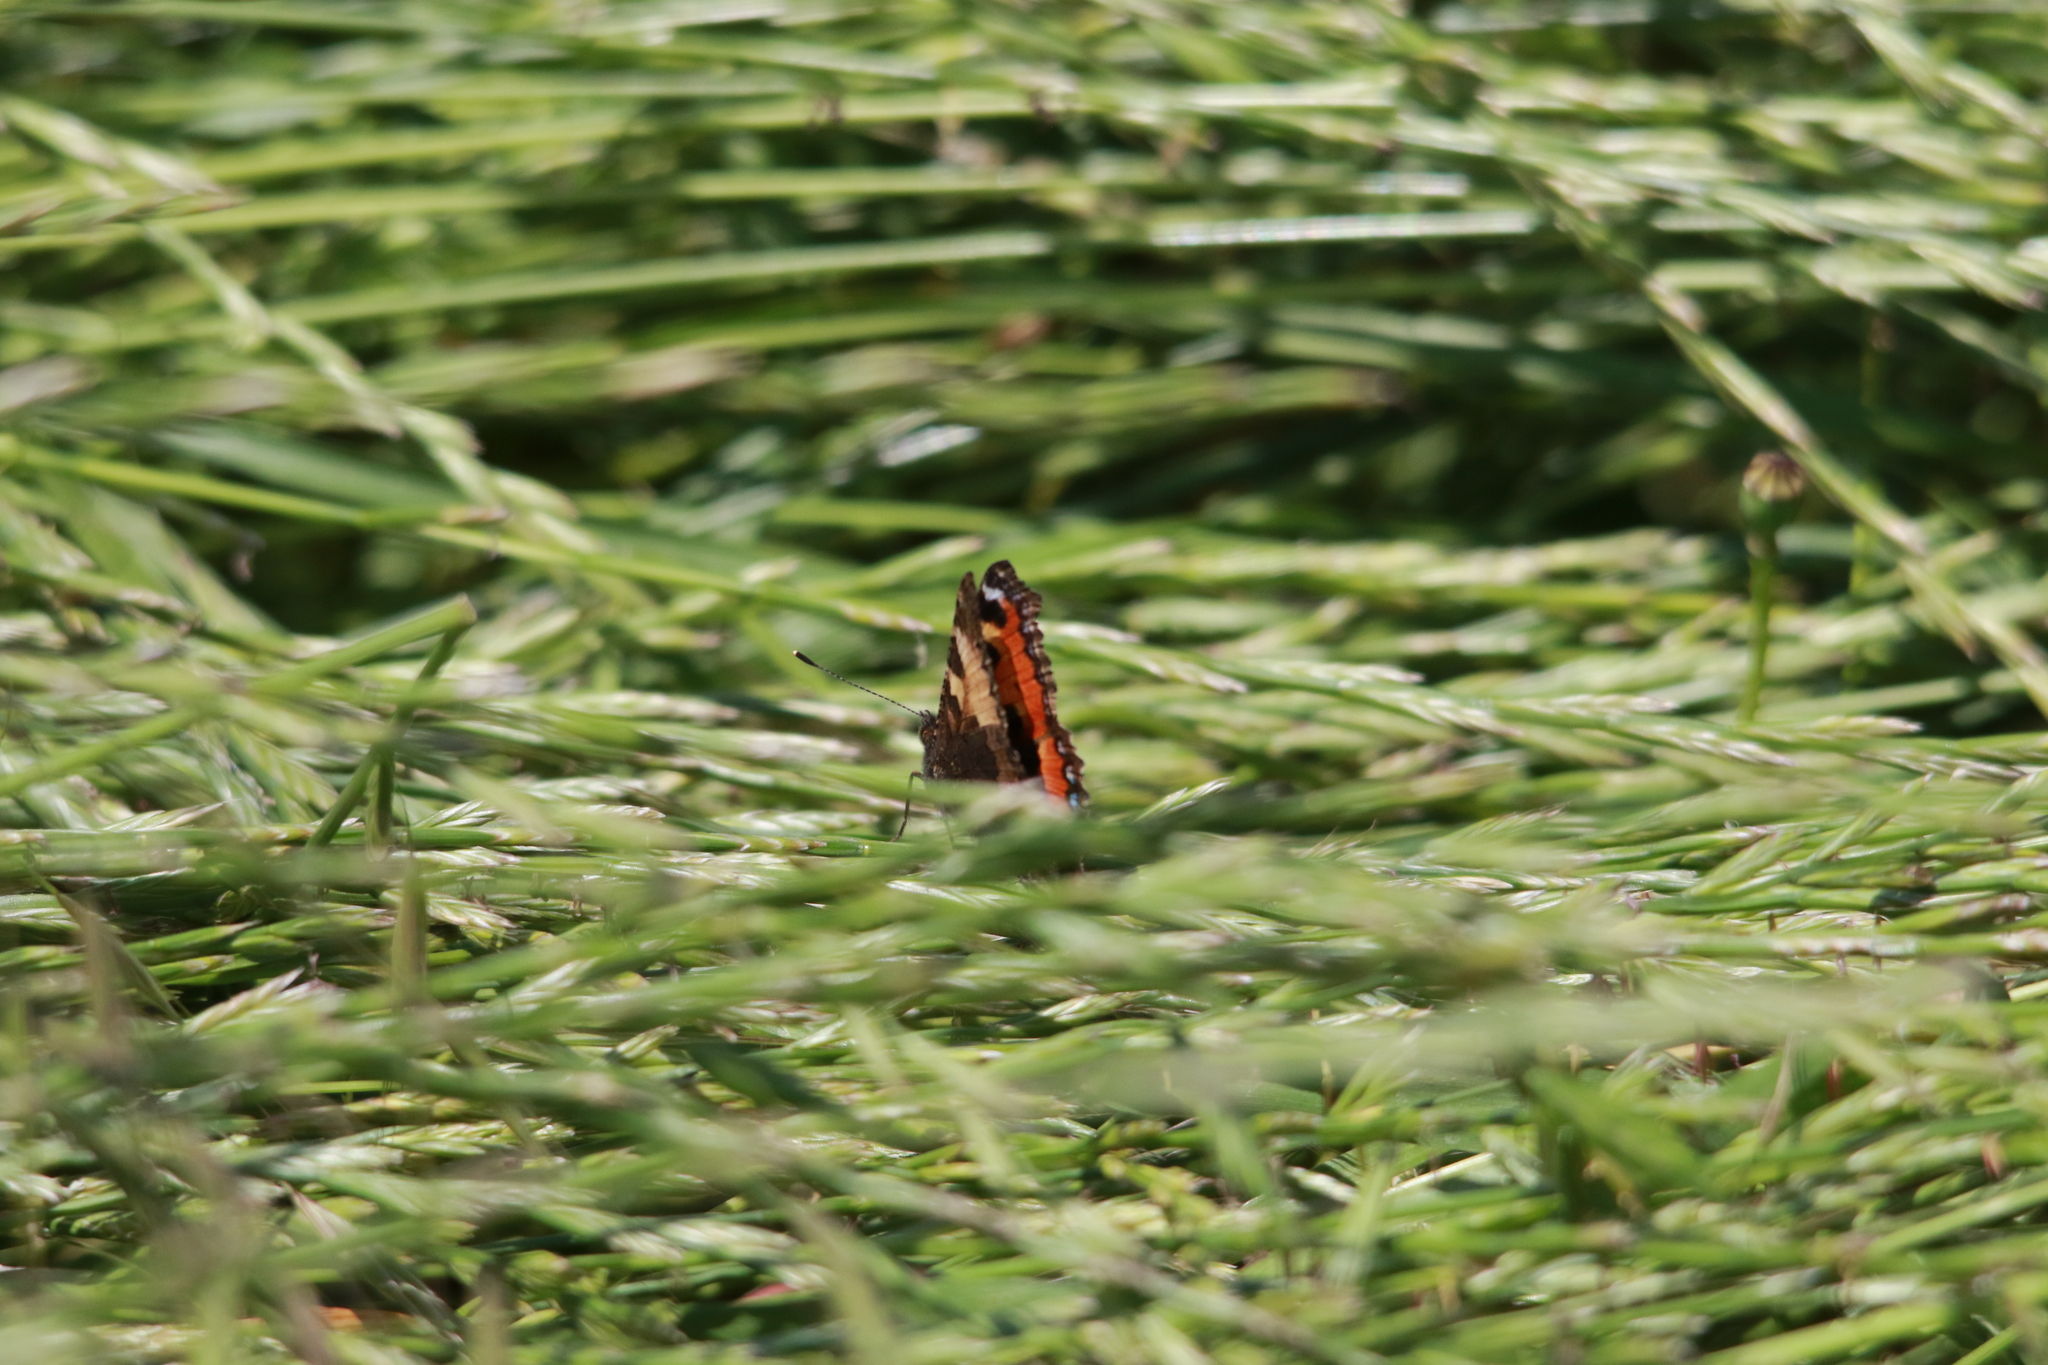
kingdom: Animalia
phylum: Arthropoda
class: Insecta
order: Lepidoptera
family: Nymphalidae
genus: Aglais
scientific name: Aglais urticae
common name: Small tortoiseshell
